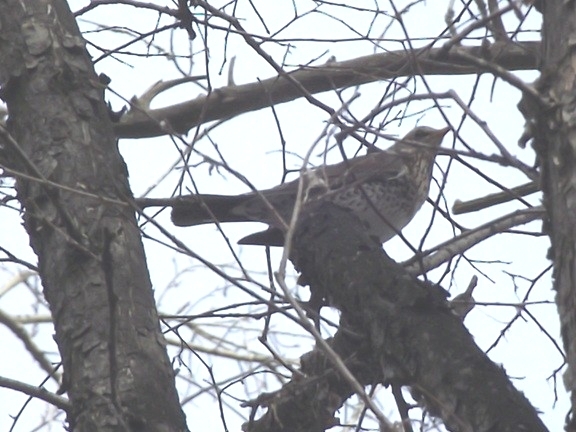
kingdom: Animalia
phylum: Chordata
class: Aves
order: Passeriformes
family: Turdidae
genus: Turdus
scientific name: Turdus pilaris
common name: Fieldfare
